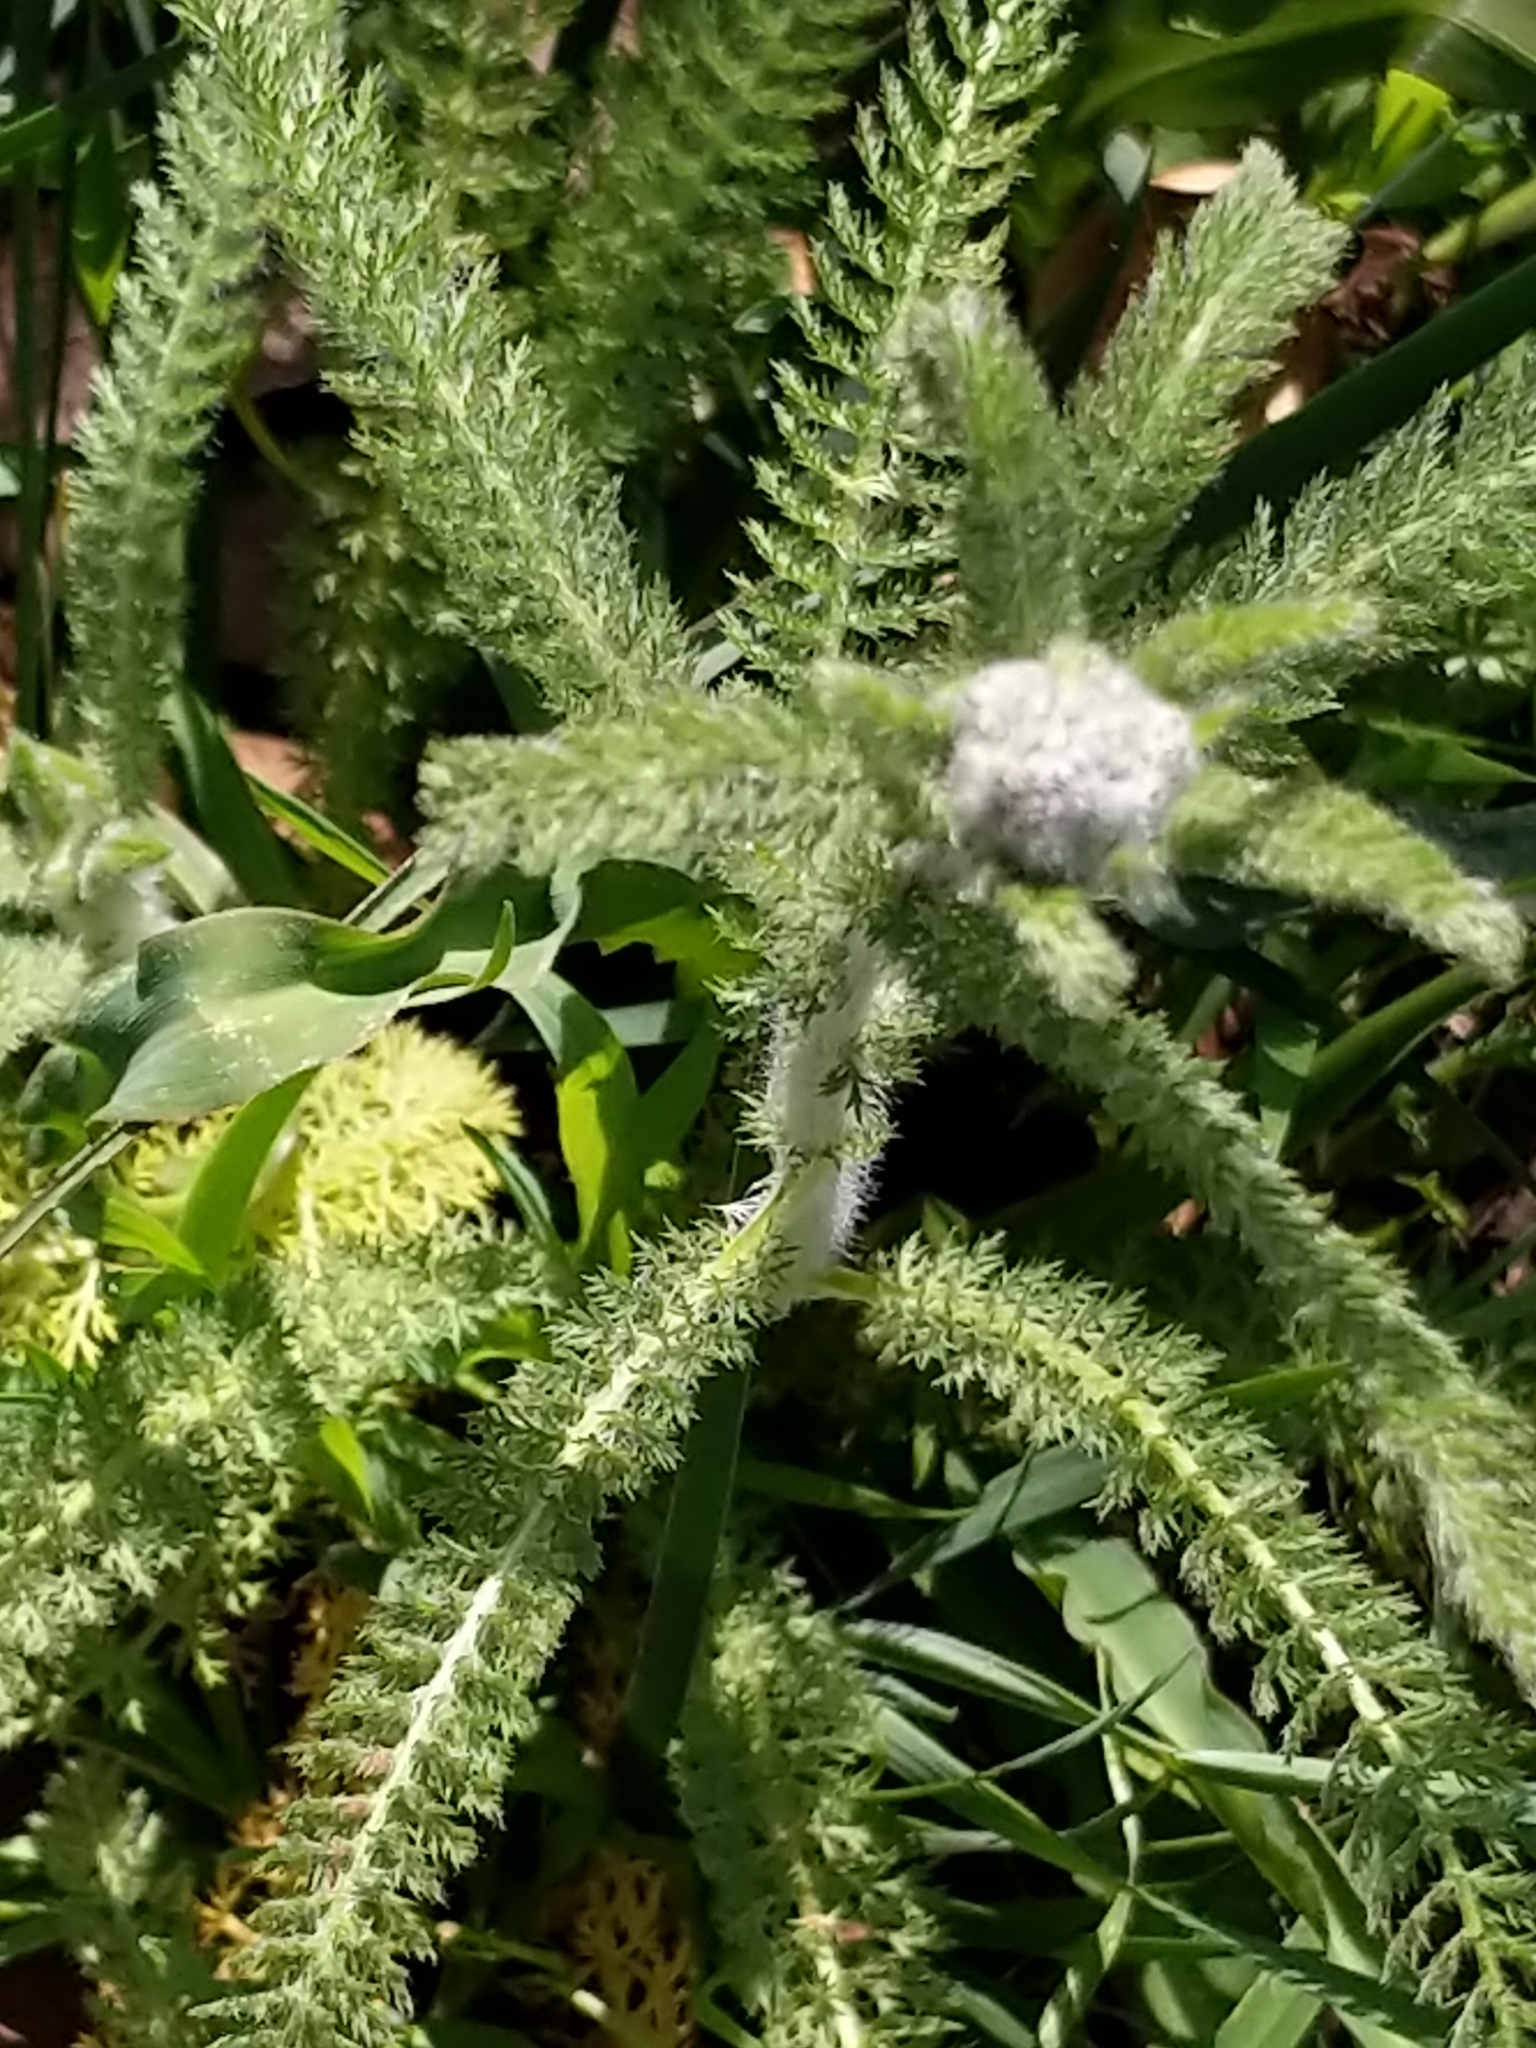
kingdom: Plantae
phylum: Tracheophyta
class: Magnoliopsida
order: Asterales
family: Asteraceae
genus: Achillea
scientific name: Achillea millefolium
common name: Yarrow
